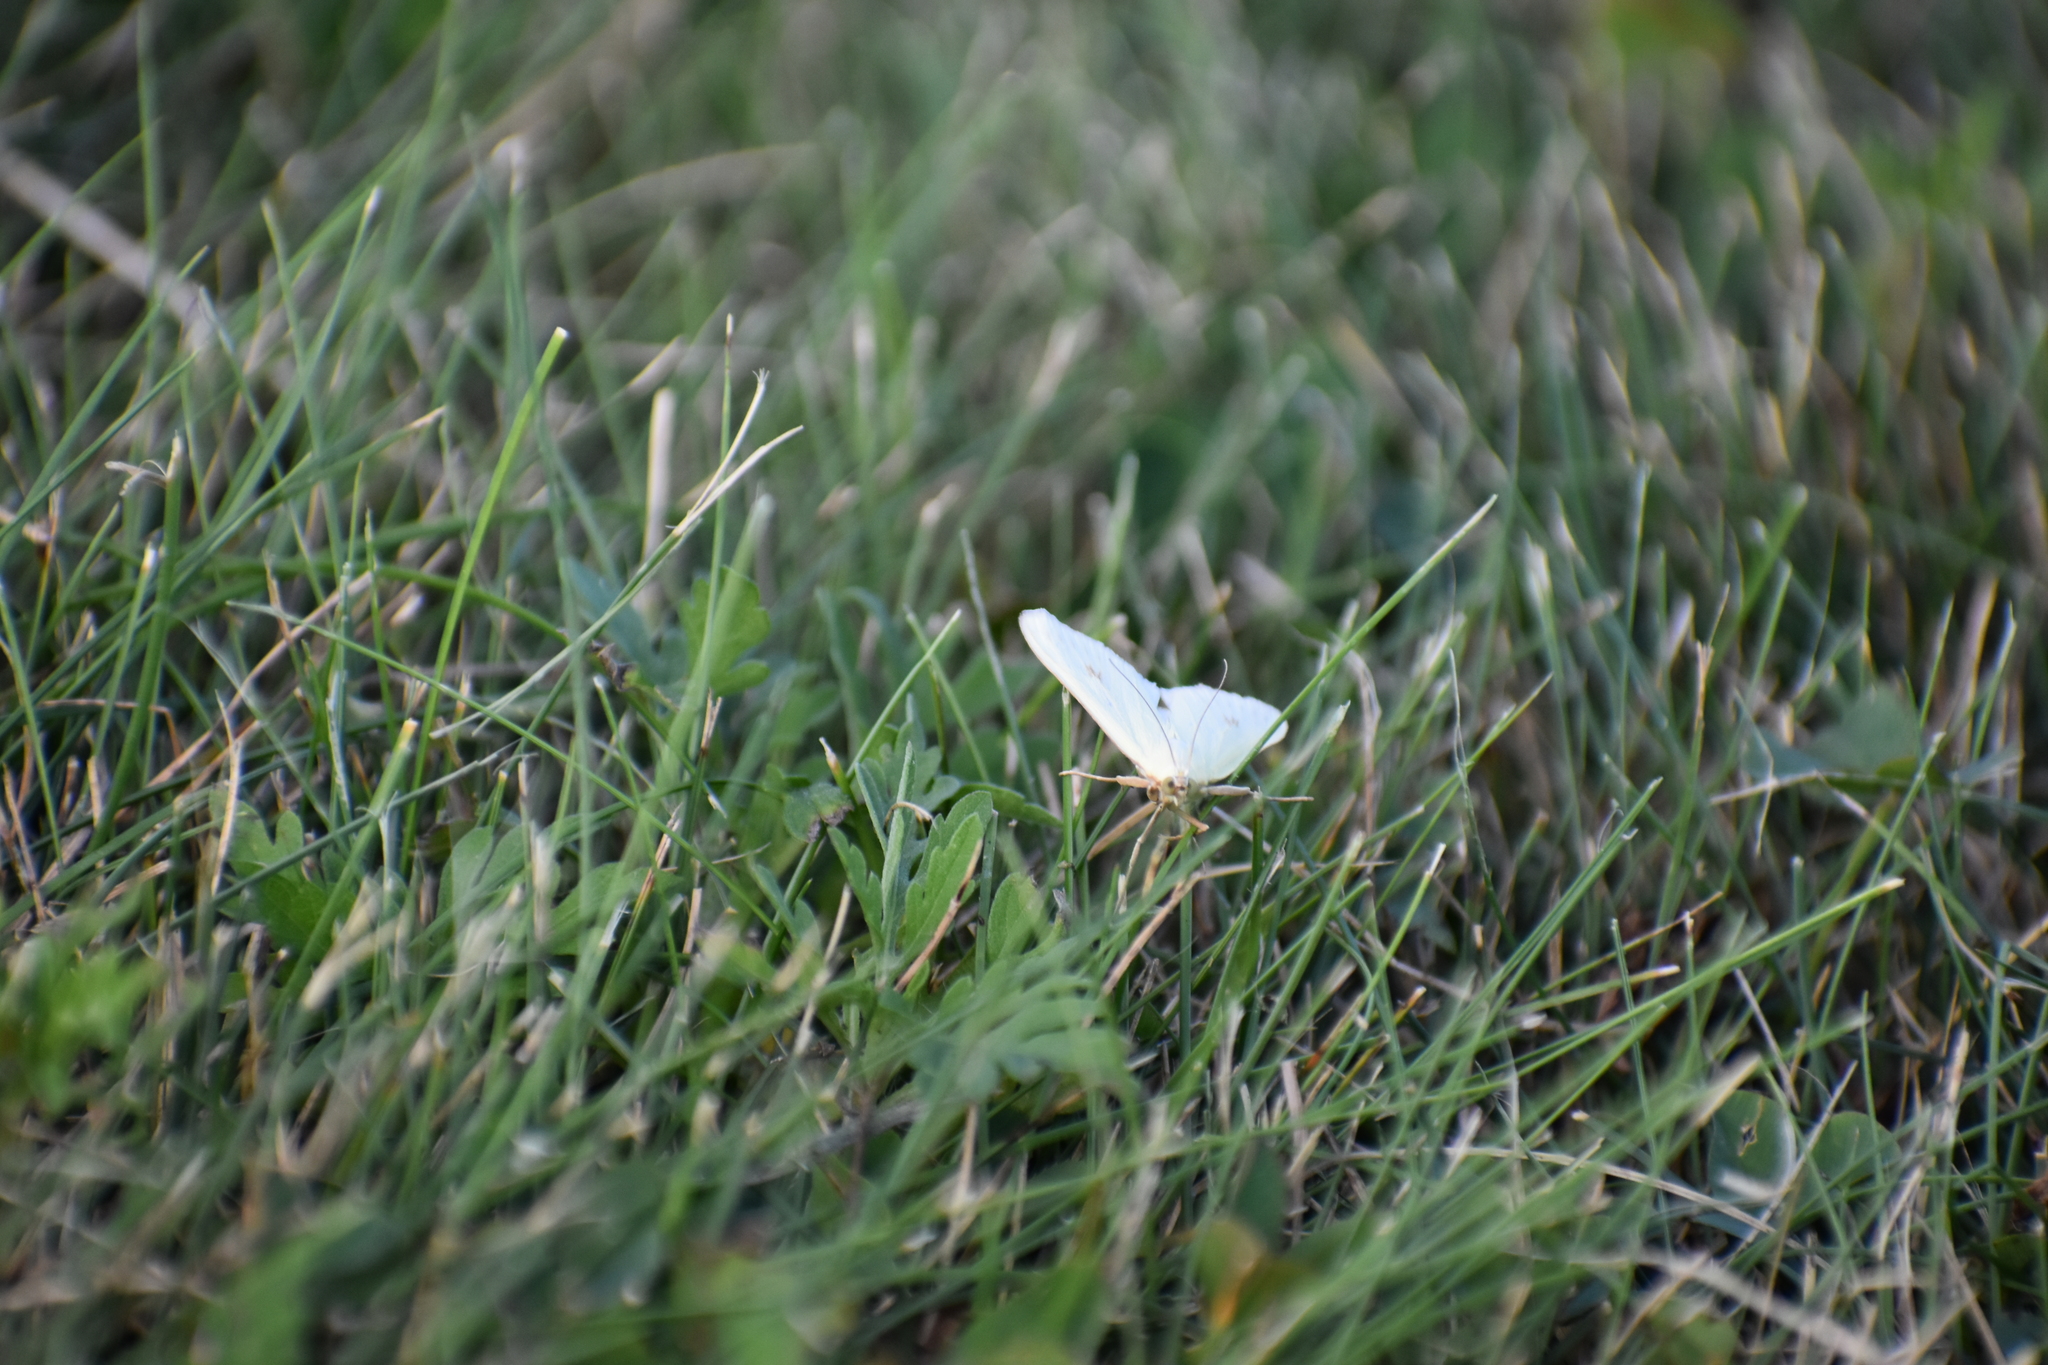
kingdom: Animalia
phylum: Arthropoda
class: Insecta
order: Lepidoptera
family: Crambidae
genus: Sitochroa
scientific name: Sitochroa palealis
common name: Greenish-yellow sitochroa moth
